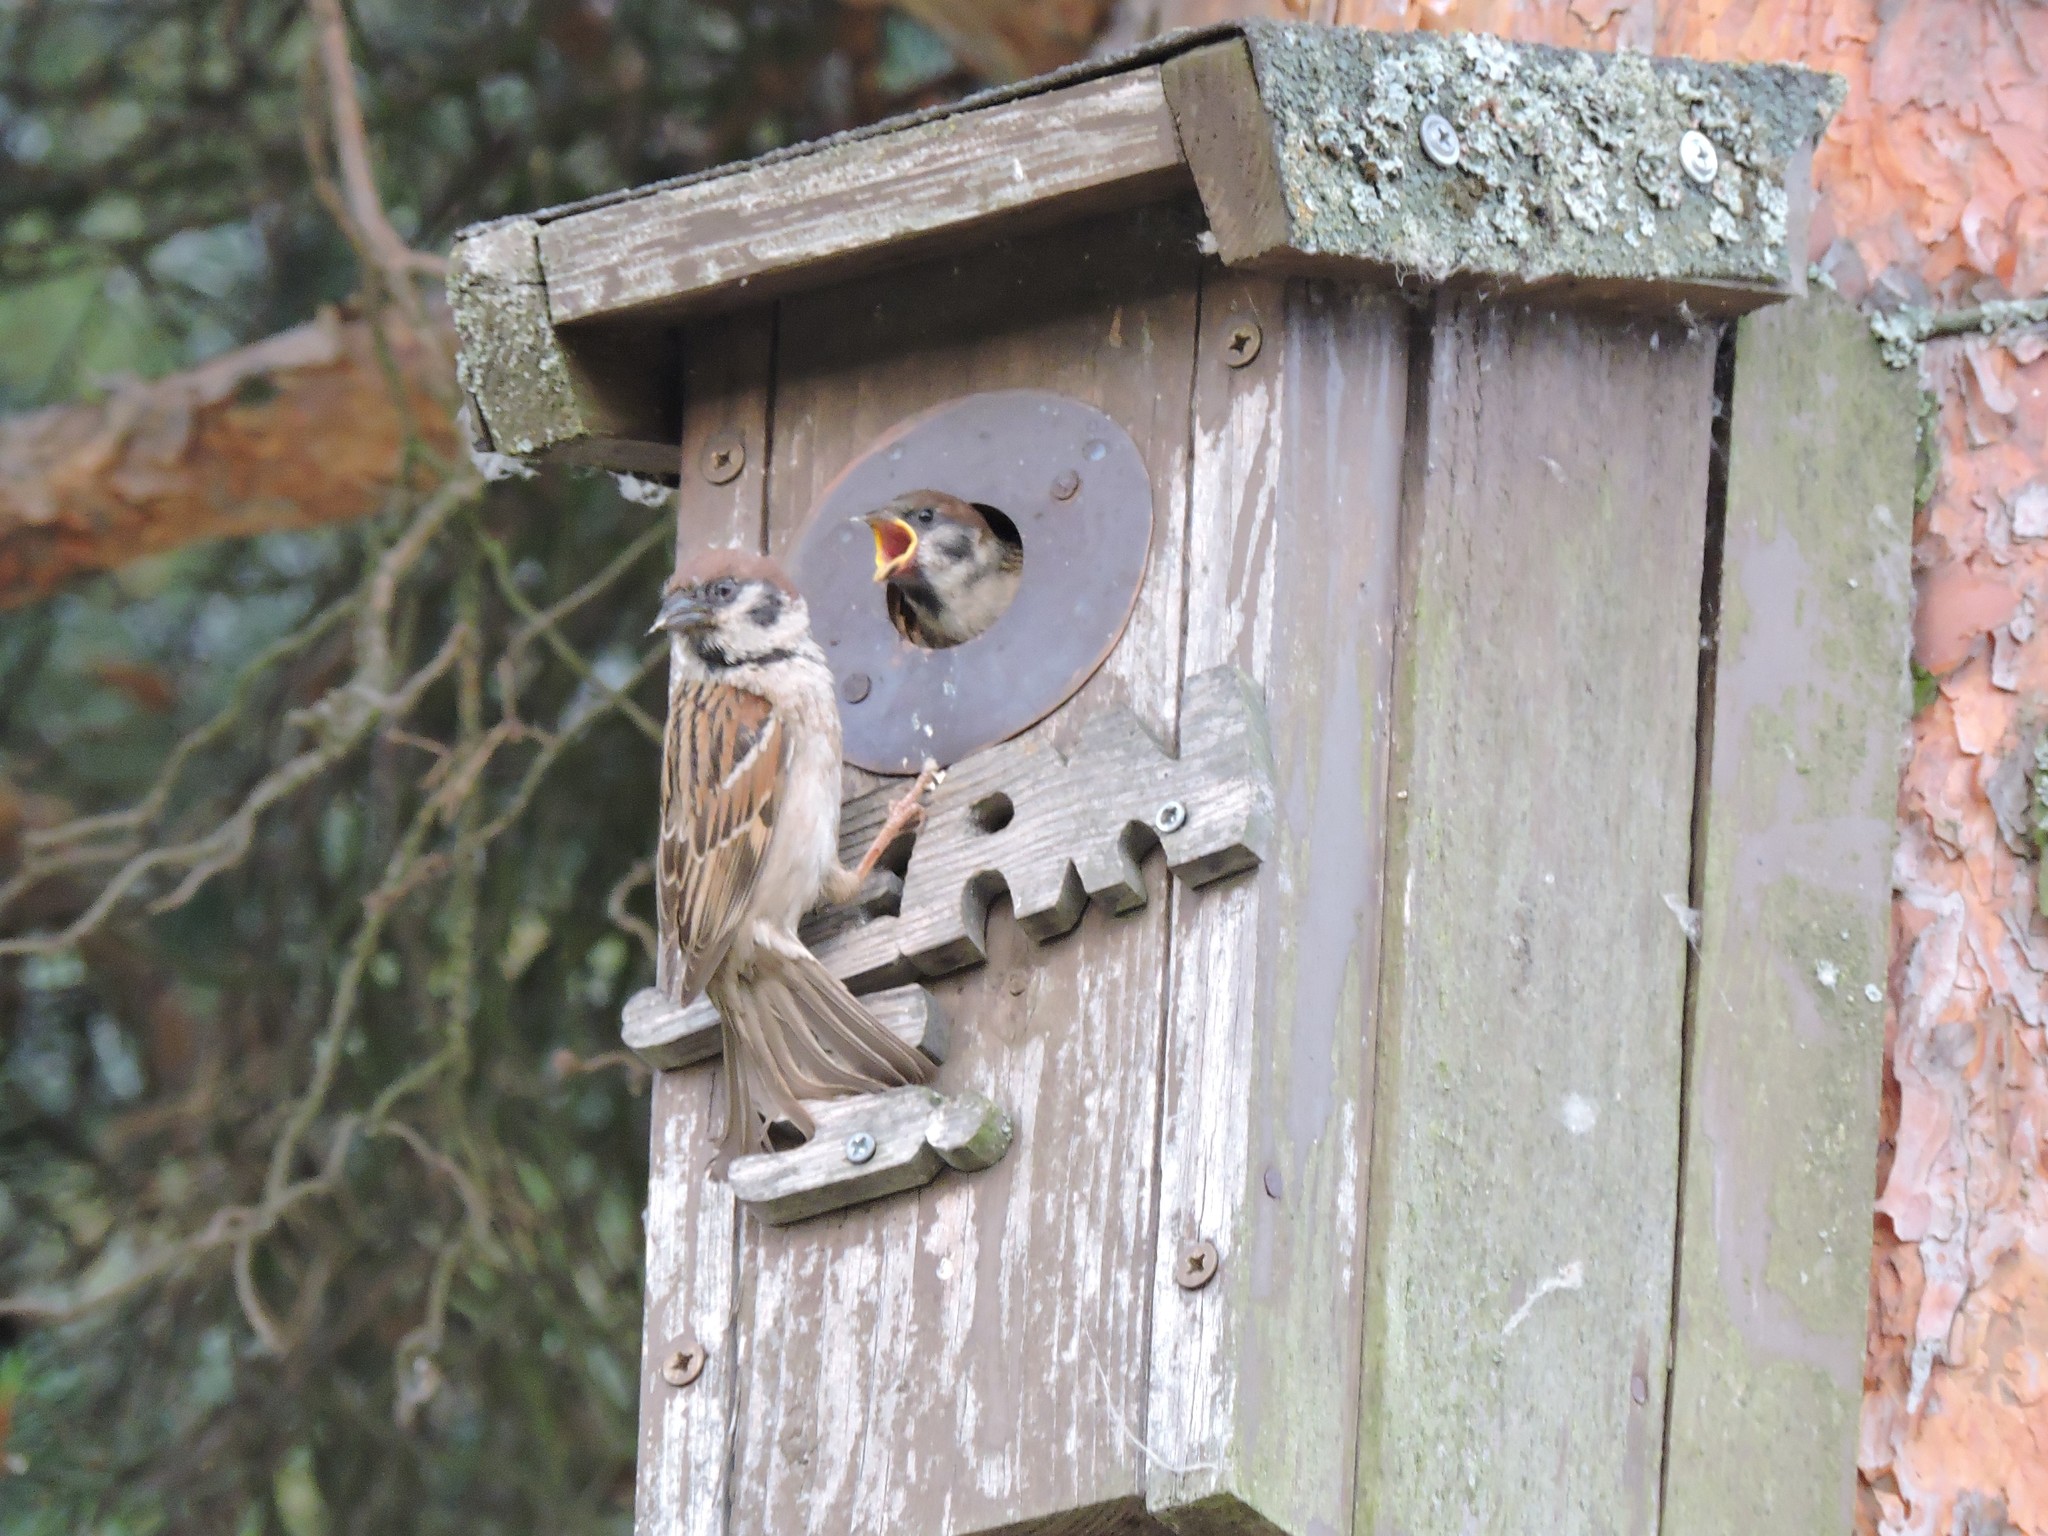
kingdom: Animalia
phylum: Chordata
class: Aves
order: Passeriformes
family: Passeridae
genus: Passer
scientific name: Passer montanus
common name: Eurasian tree sparrow
